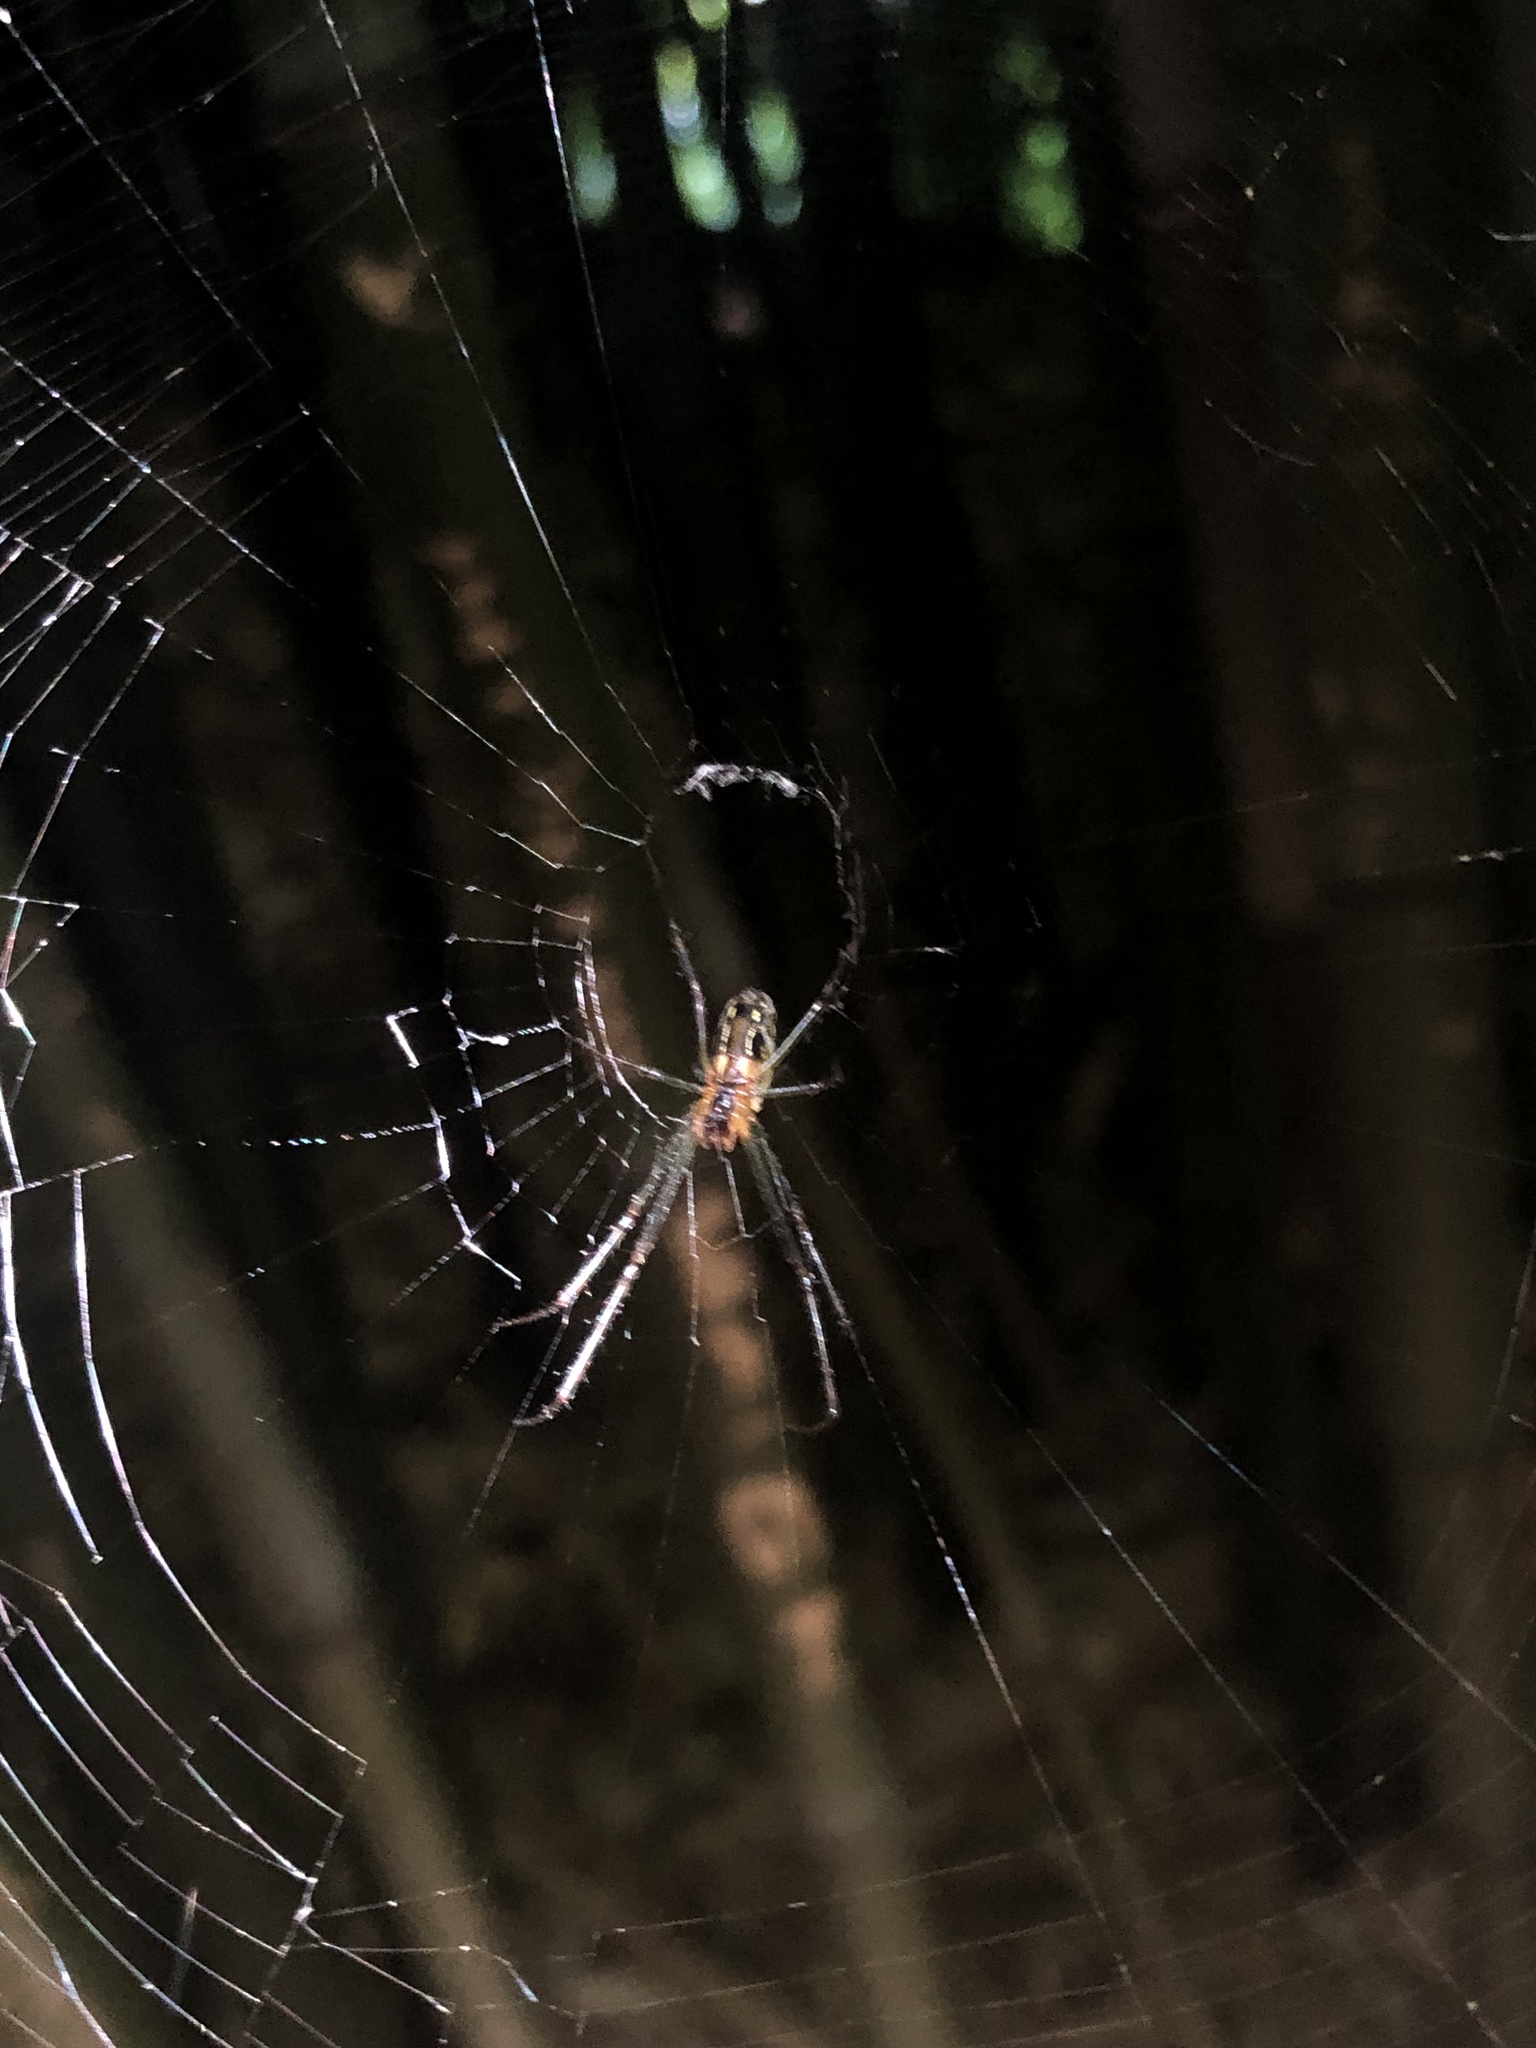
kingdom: Animalia
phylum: Arthropoda
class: Arachnida
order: Araneae
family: Tetragnathidae
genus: Leucauge
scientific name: Leucauge dromedaria
